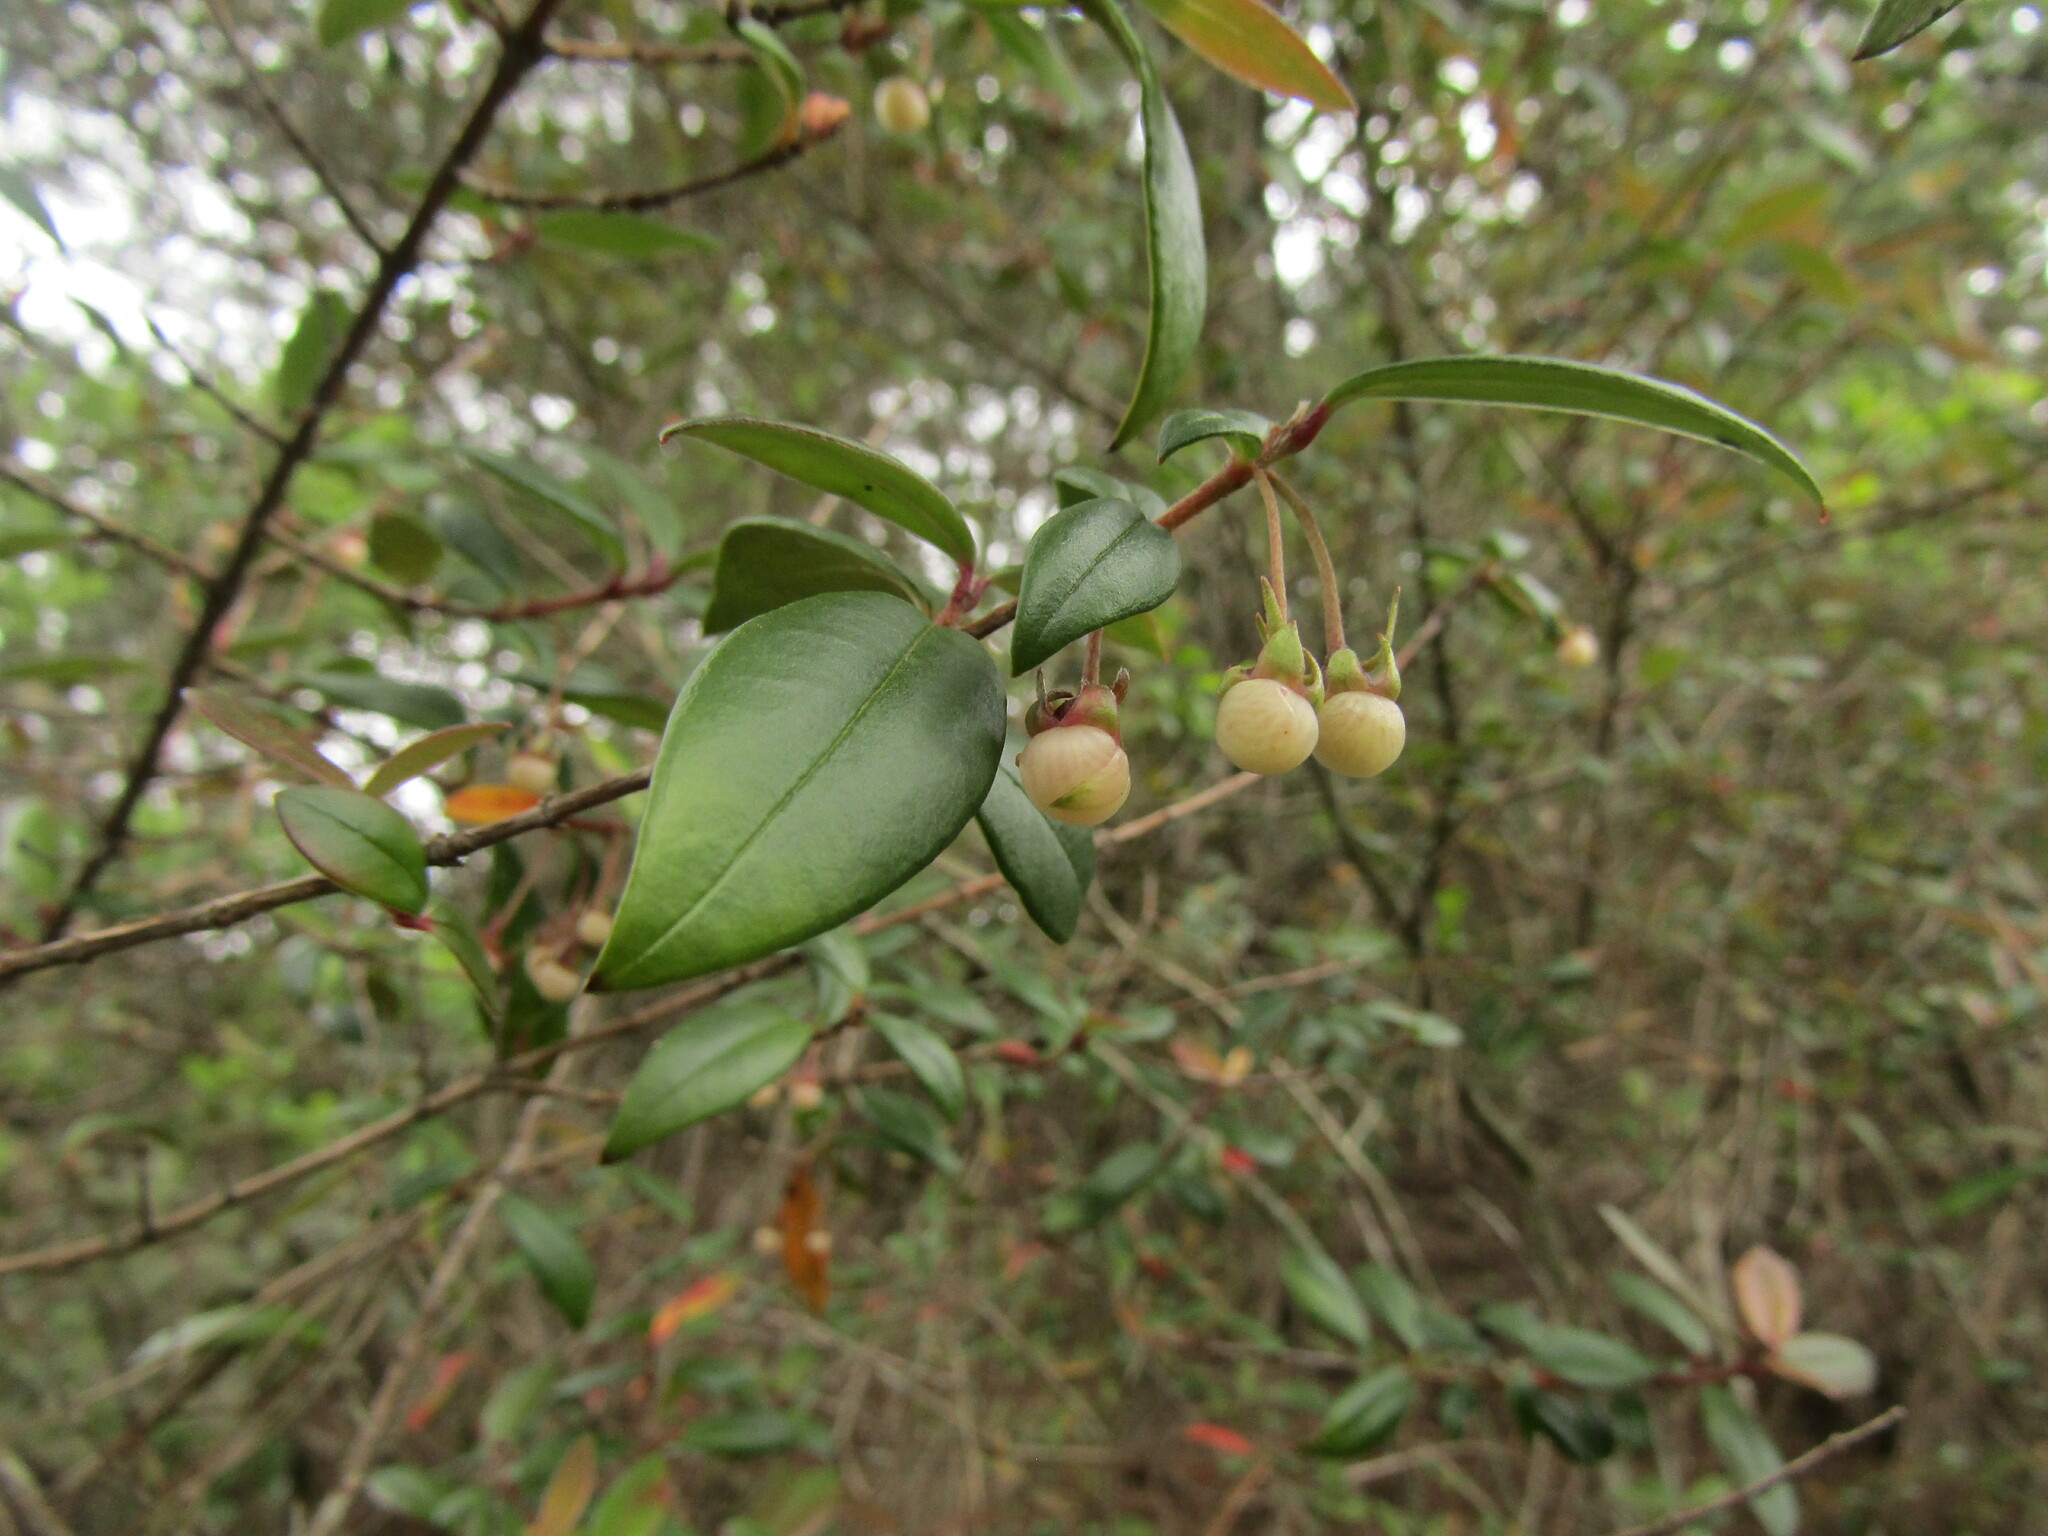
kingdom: Plantae
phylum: Tracheophyta
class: Magnoliopsida
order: Myrtales
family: Myrtaceae
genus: Ugni
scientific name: Ugni molinae
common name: Chilean-guava
